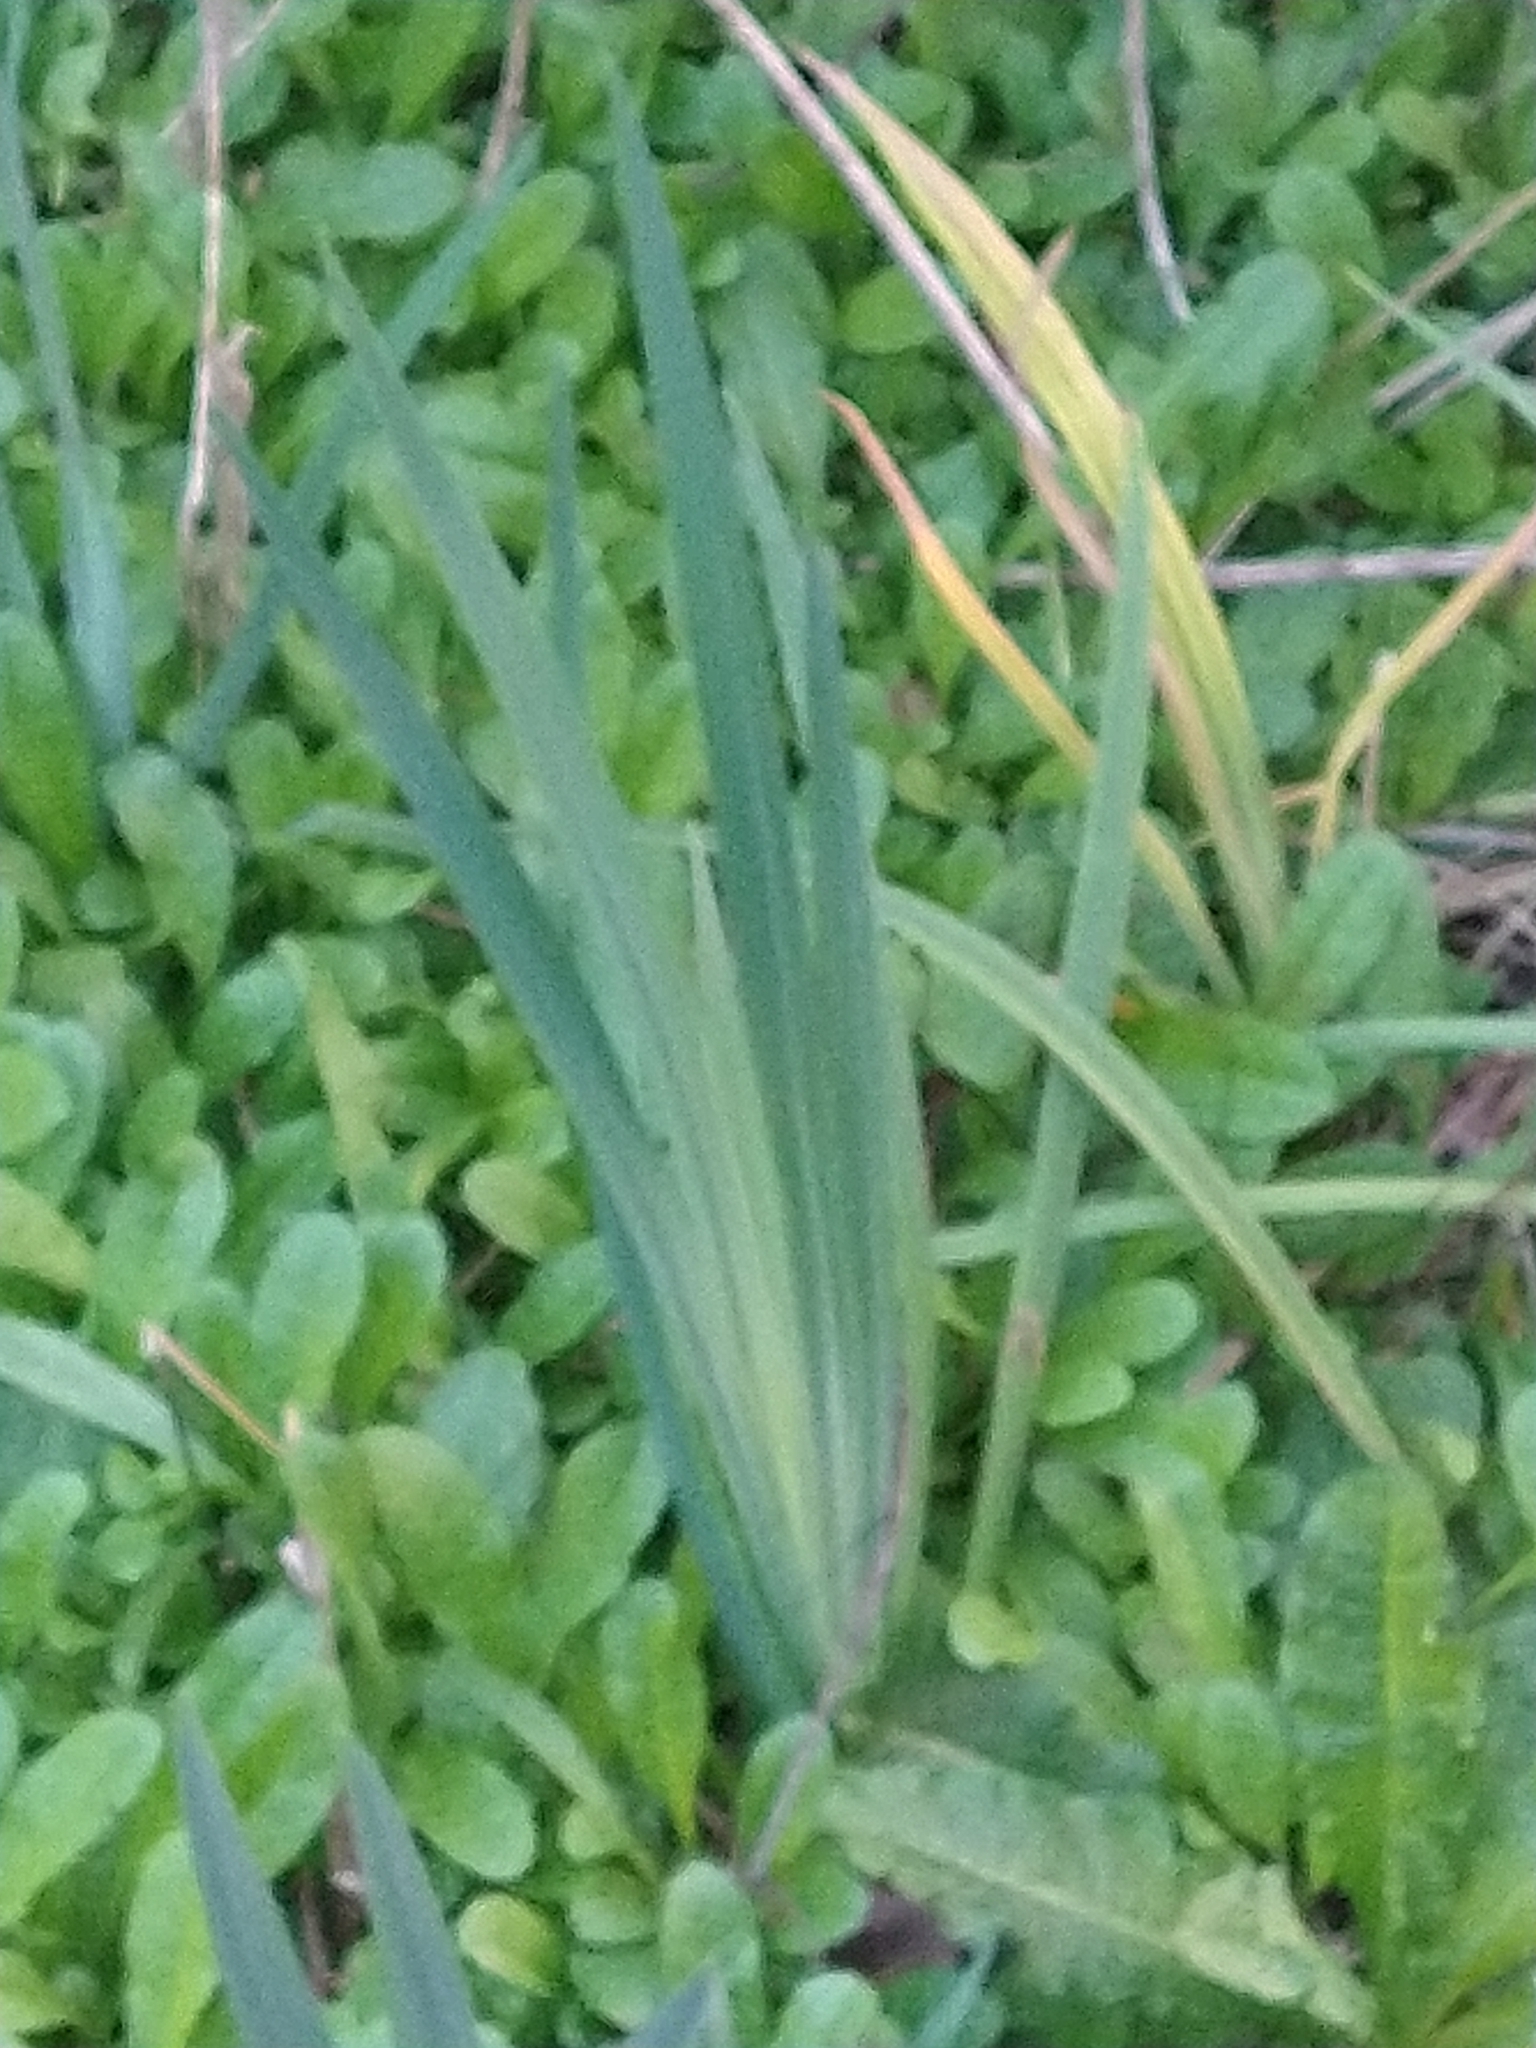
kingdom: Plantae
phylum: Tracheophyta
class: Liliopsida
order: Asparagales
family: Iridaceae
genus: Iris
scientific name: Iris pseudacorus
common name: Yellow flag
